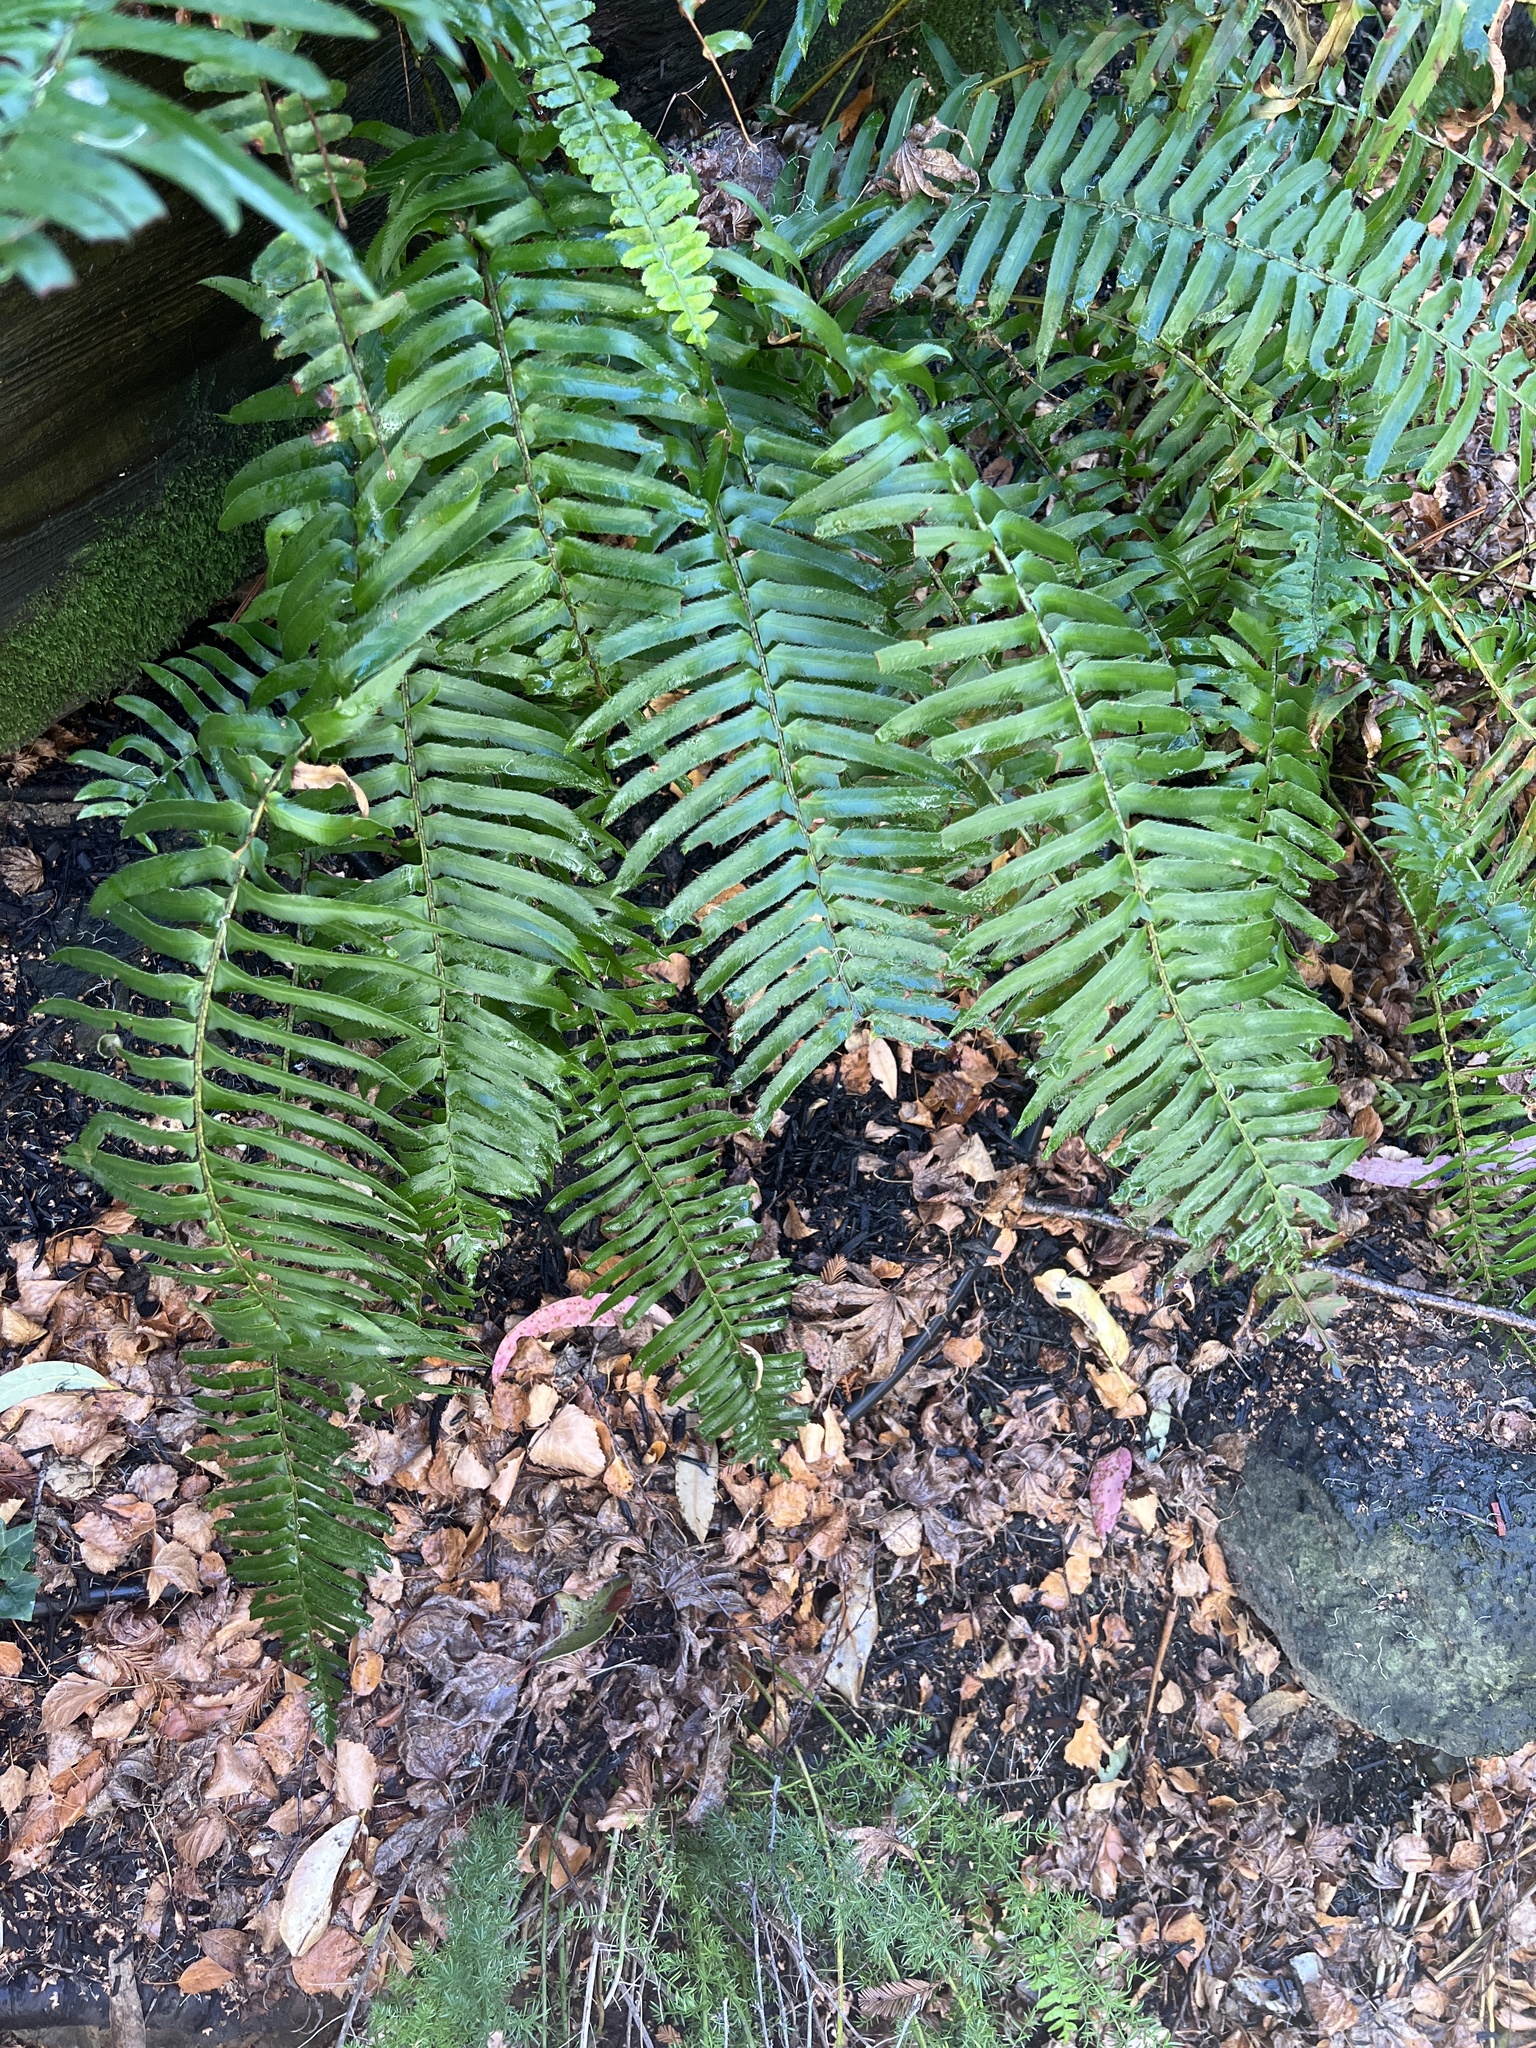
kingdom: Plantae
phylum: Tracheophyta
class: Polypodiopsida
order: Polypodiales
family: Dryopteridaceae
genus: Polystichum
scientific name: Polystichum munitum
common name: Western sword-fern
